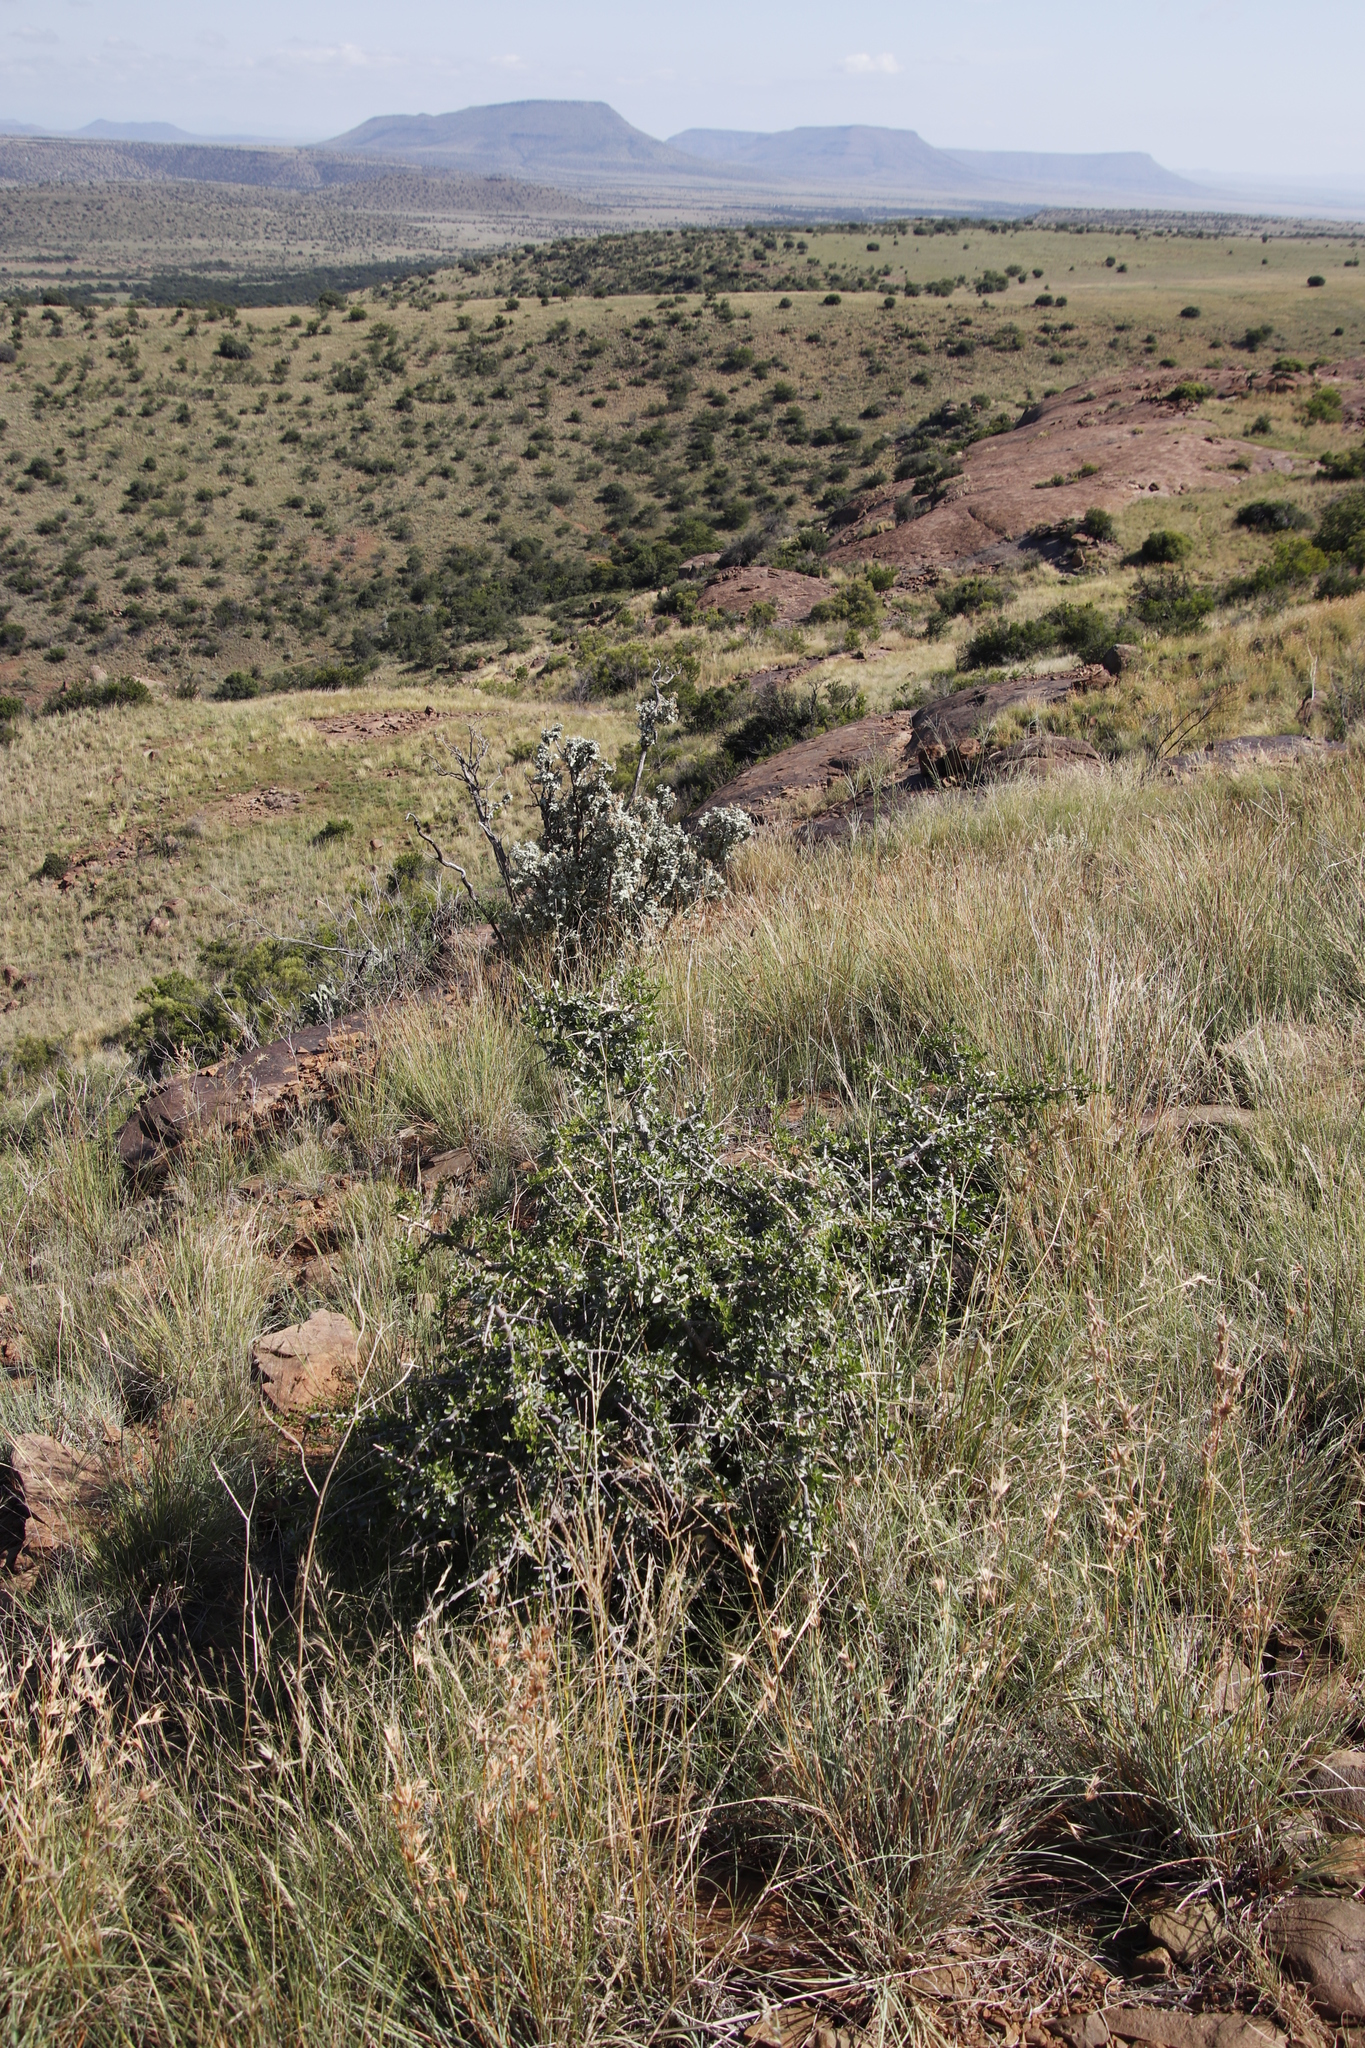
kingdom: Plantae
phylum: Tracheophyta
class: Magnoliopsida
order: Sapindales
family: Anacardiaceae
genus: Searsia
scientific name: Searsia longispina
